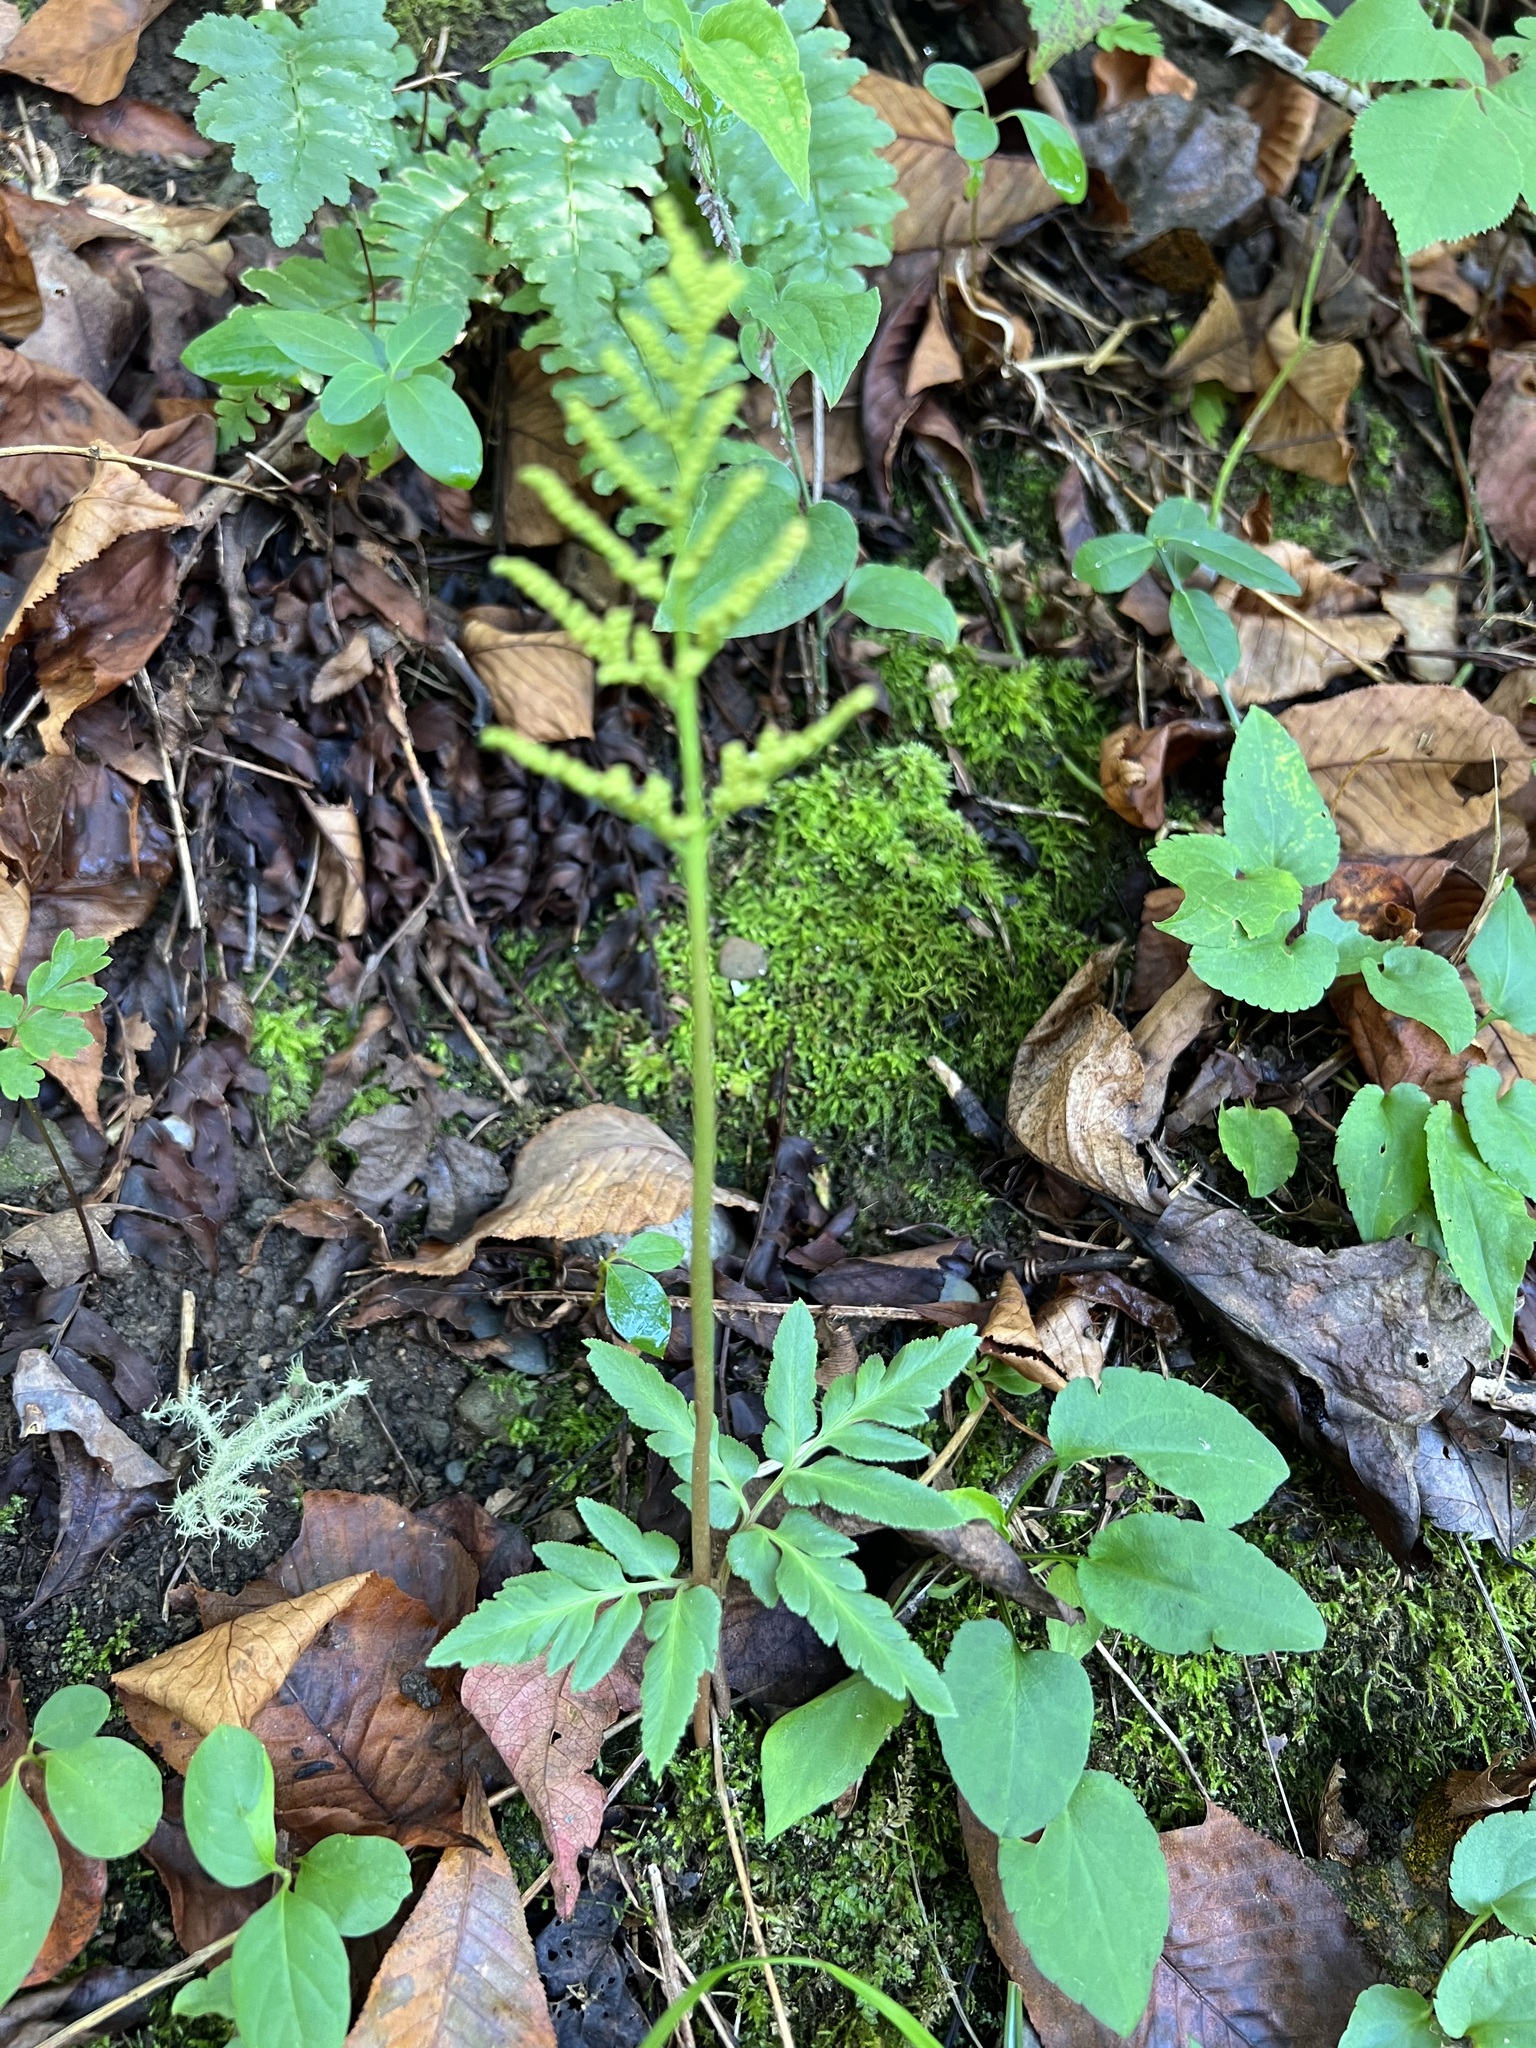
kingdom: Plantae
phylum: Tracheophyta
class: Polypodiopsida
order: Ophioglossales
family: Ophioglossaceae
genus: Sceptridium
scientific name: Sceptridium dissectum
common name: Cut-leaved grapefern
